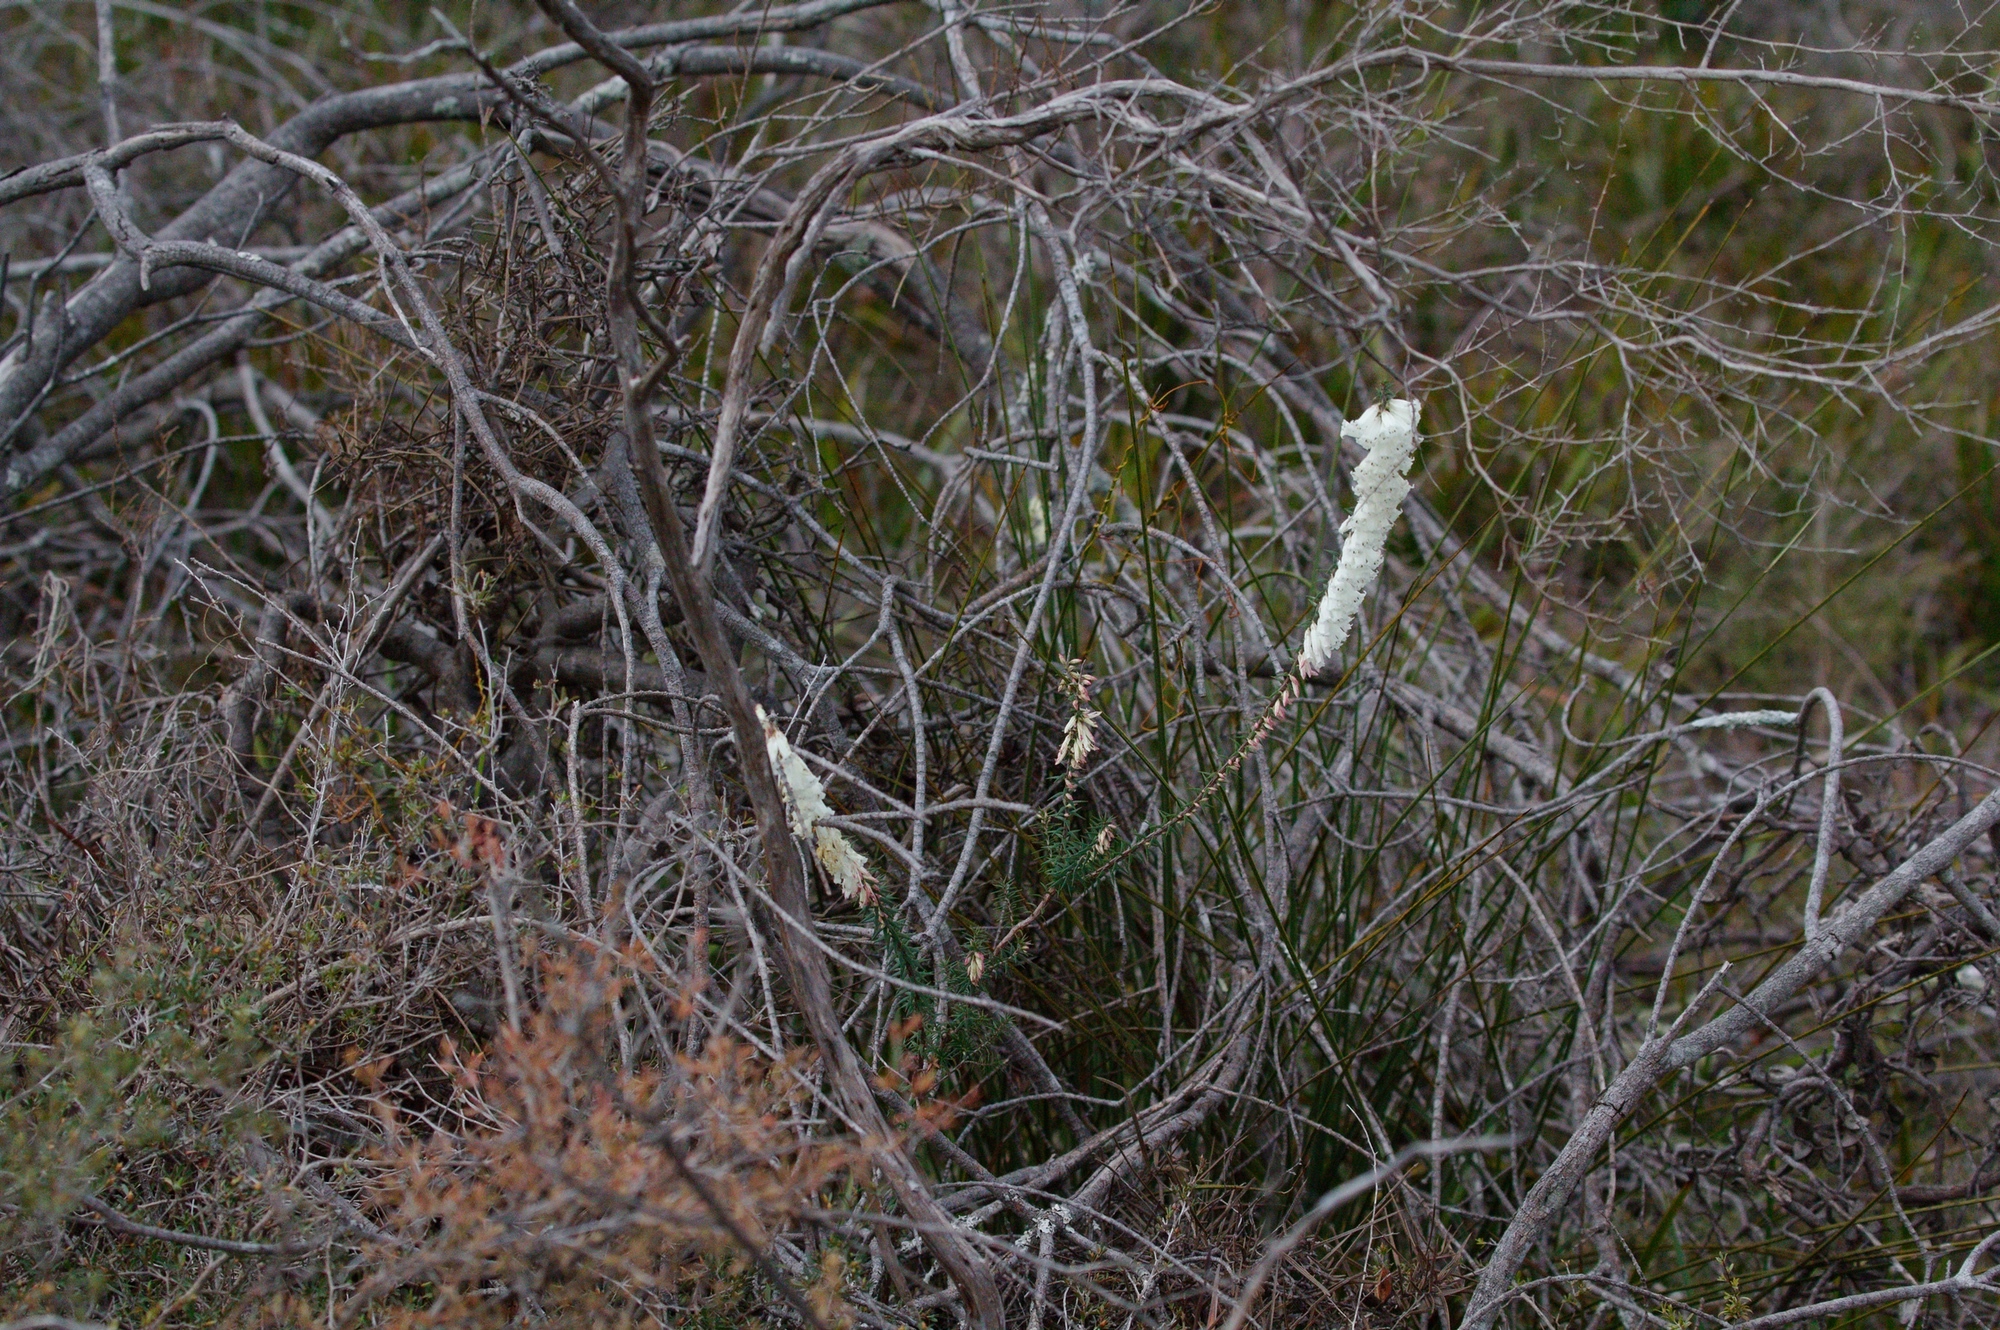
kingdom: Plantae
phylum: Tracheophyta
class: Magnoliopsida
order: Ericales
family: Ericaceae
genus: Epacris
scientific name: Epacris impressa
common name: Common-heath
